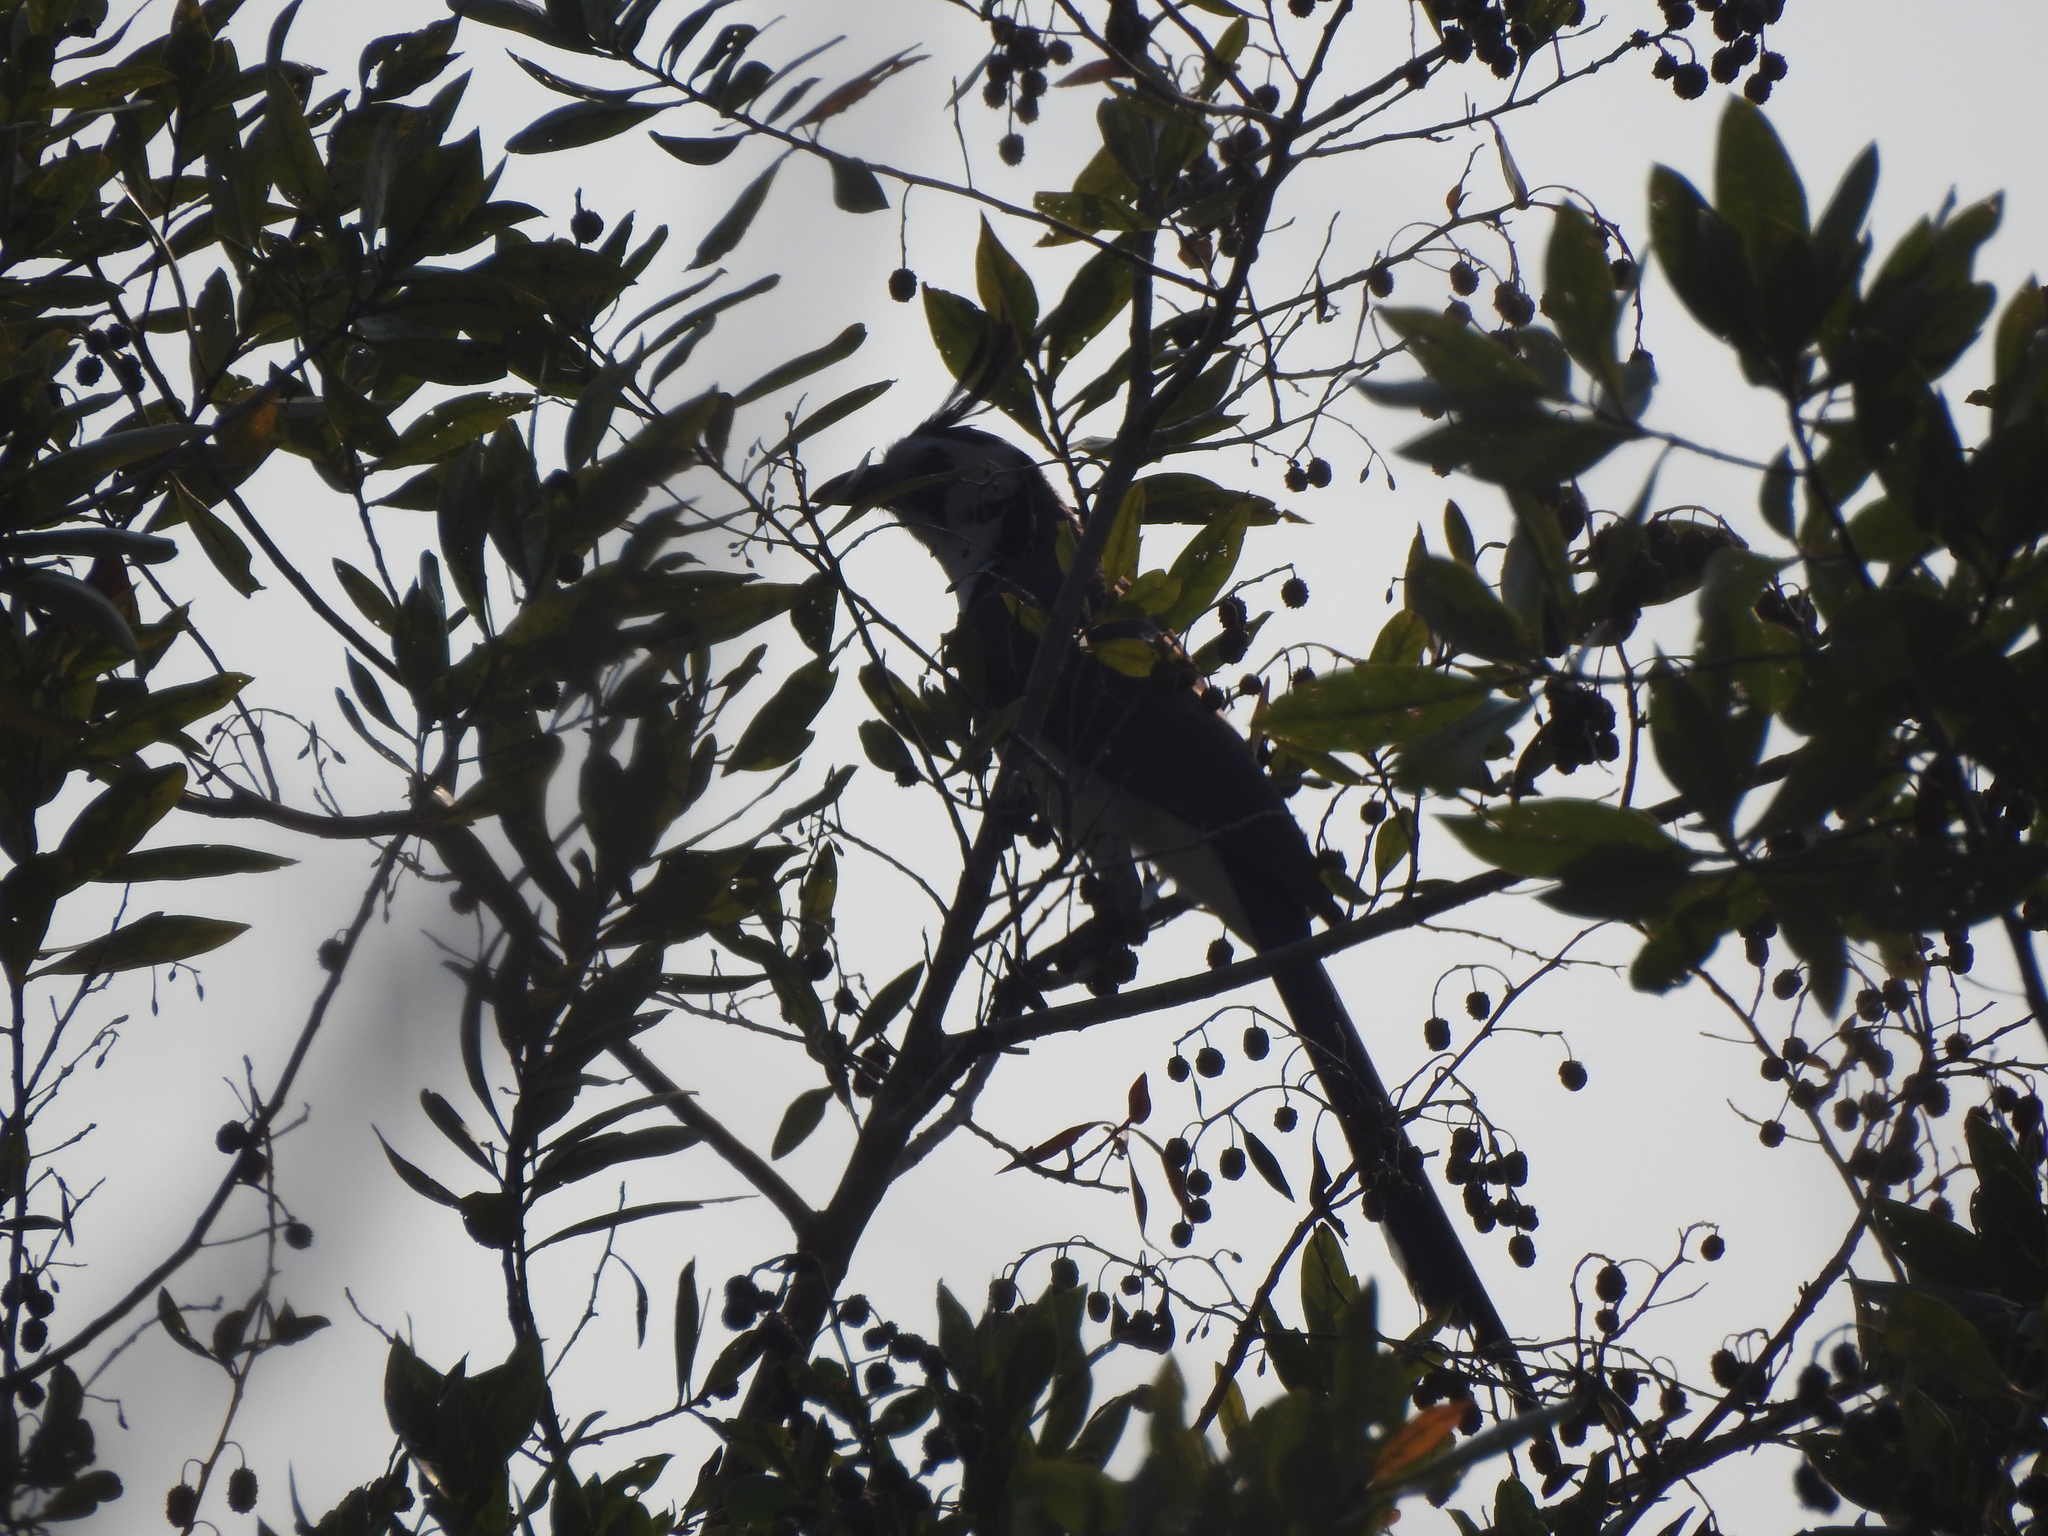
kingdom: Animalia
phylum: Chordata
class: Aves
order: Passeriformes
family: Corvidae
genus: Calocitta
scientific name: Calocitta formosa
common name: White-throated magpie-jay
